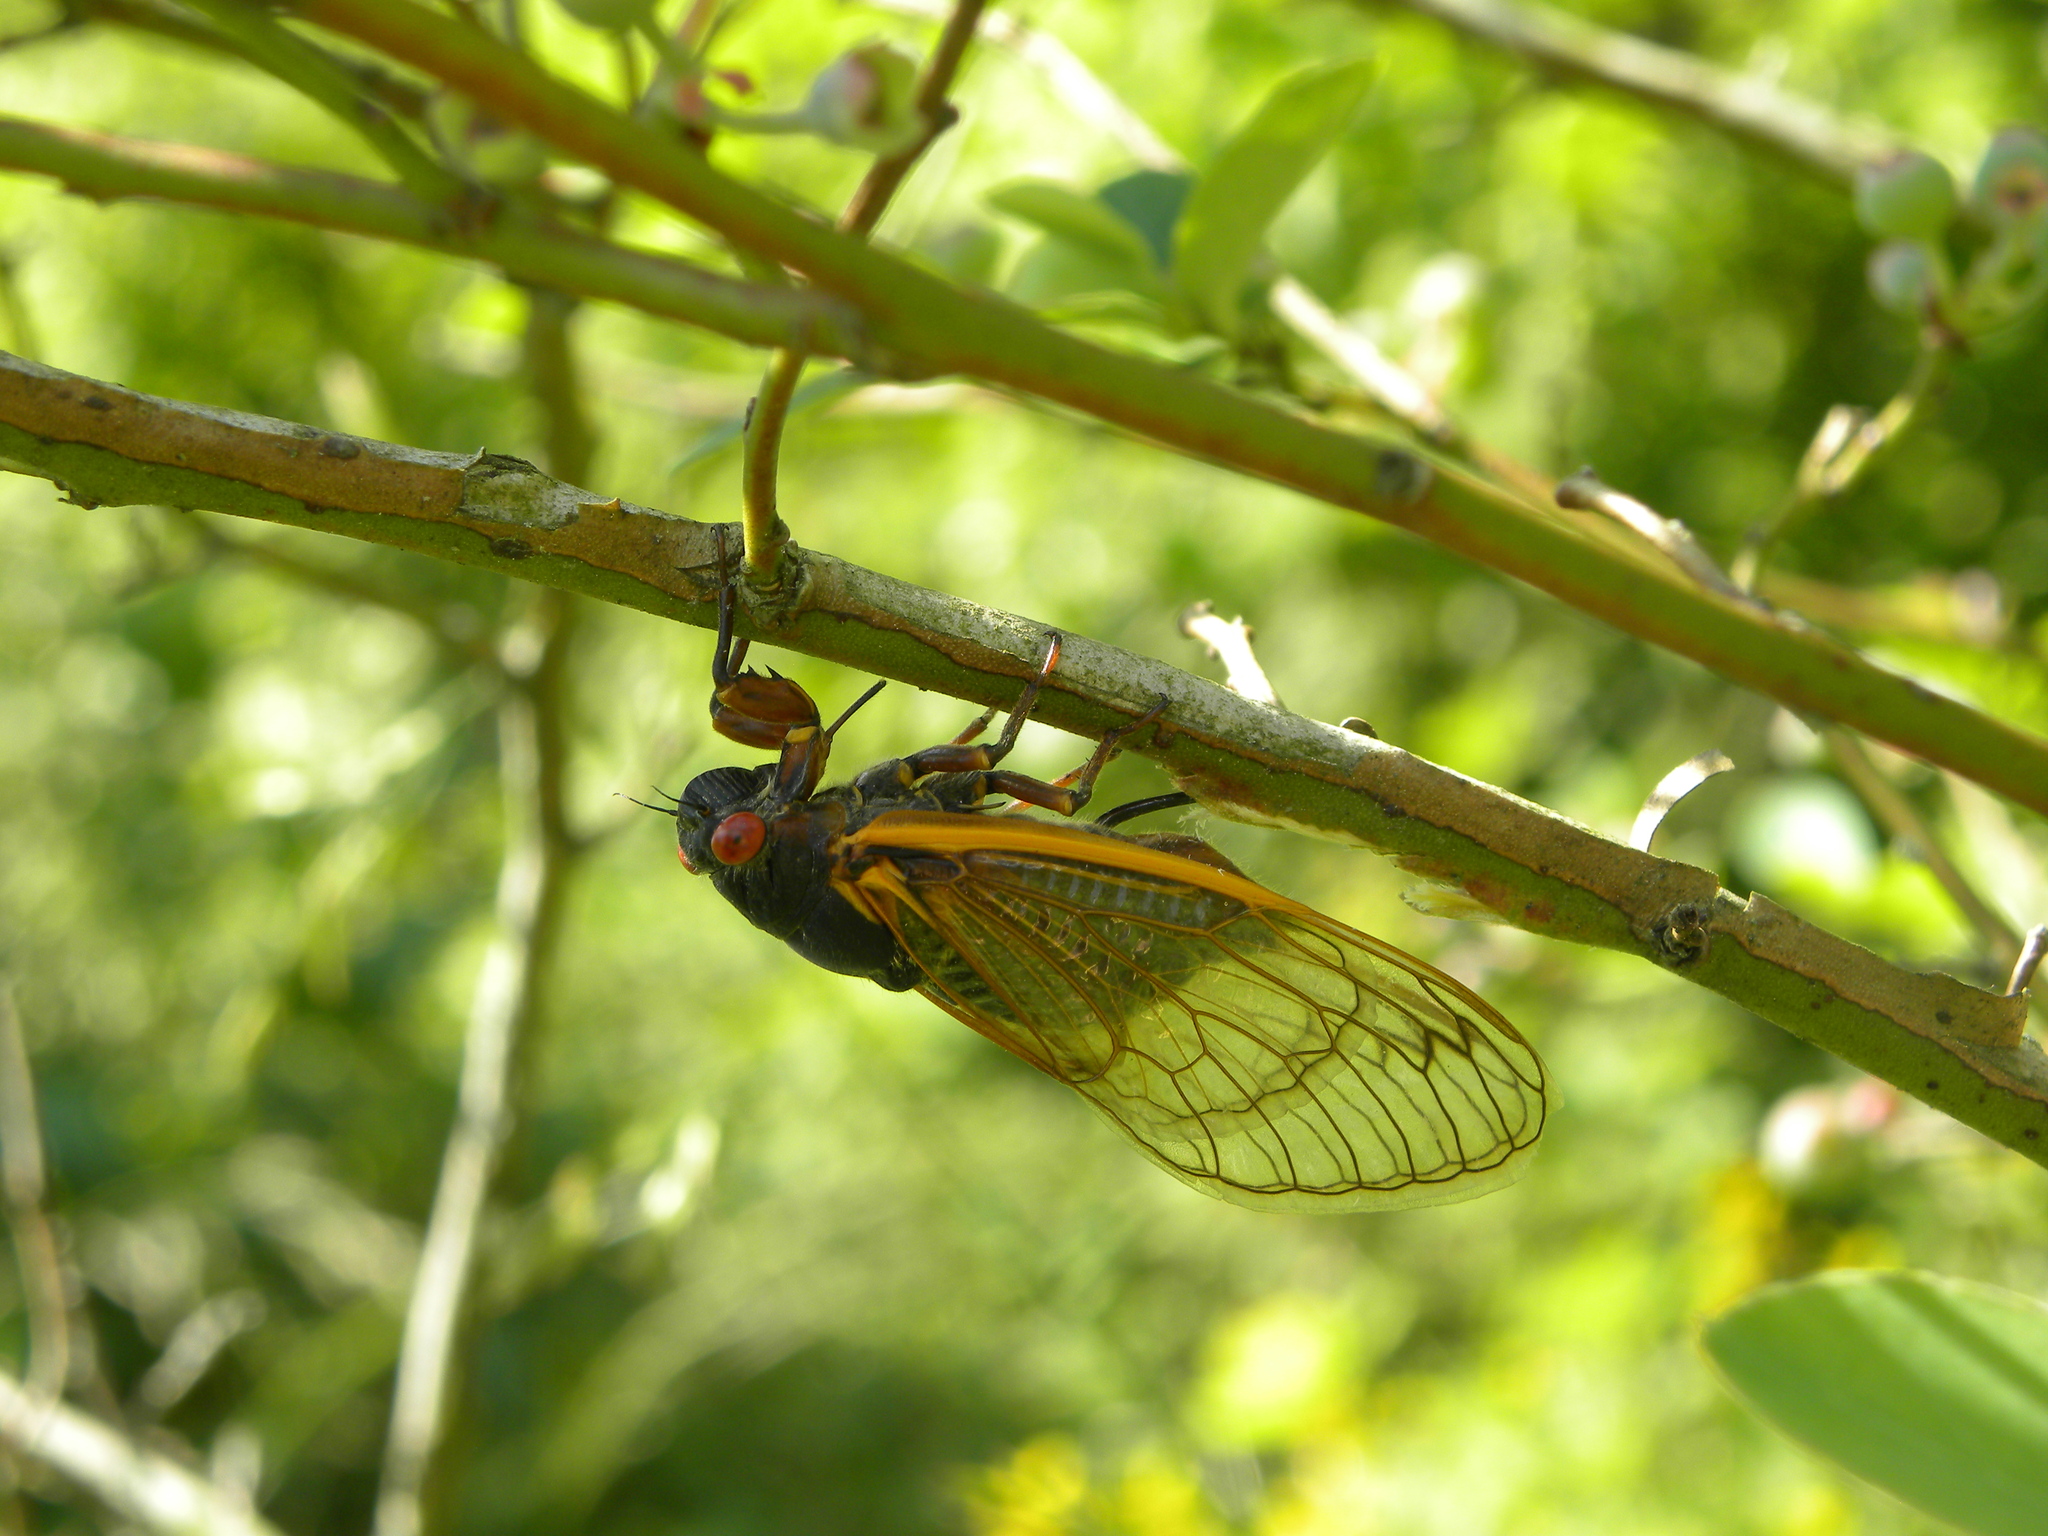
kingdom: Animalia
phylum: Arthropoda
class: Insecta
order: Hemiptera
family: Cicadidae
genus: Magicicada
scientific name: Magicicada septendecim
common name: Periodical cicada
